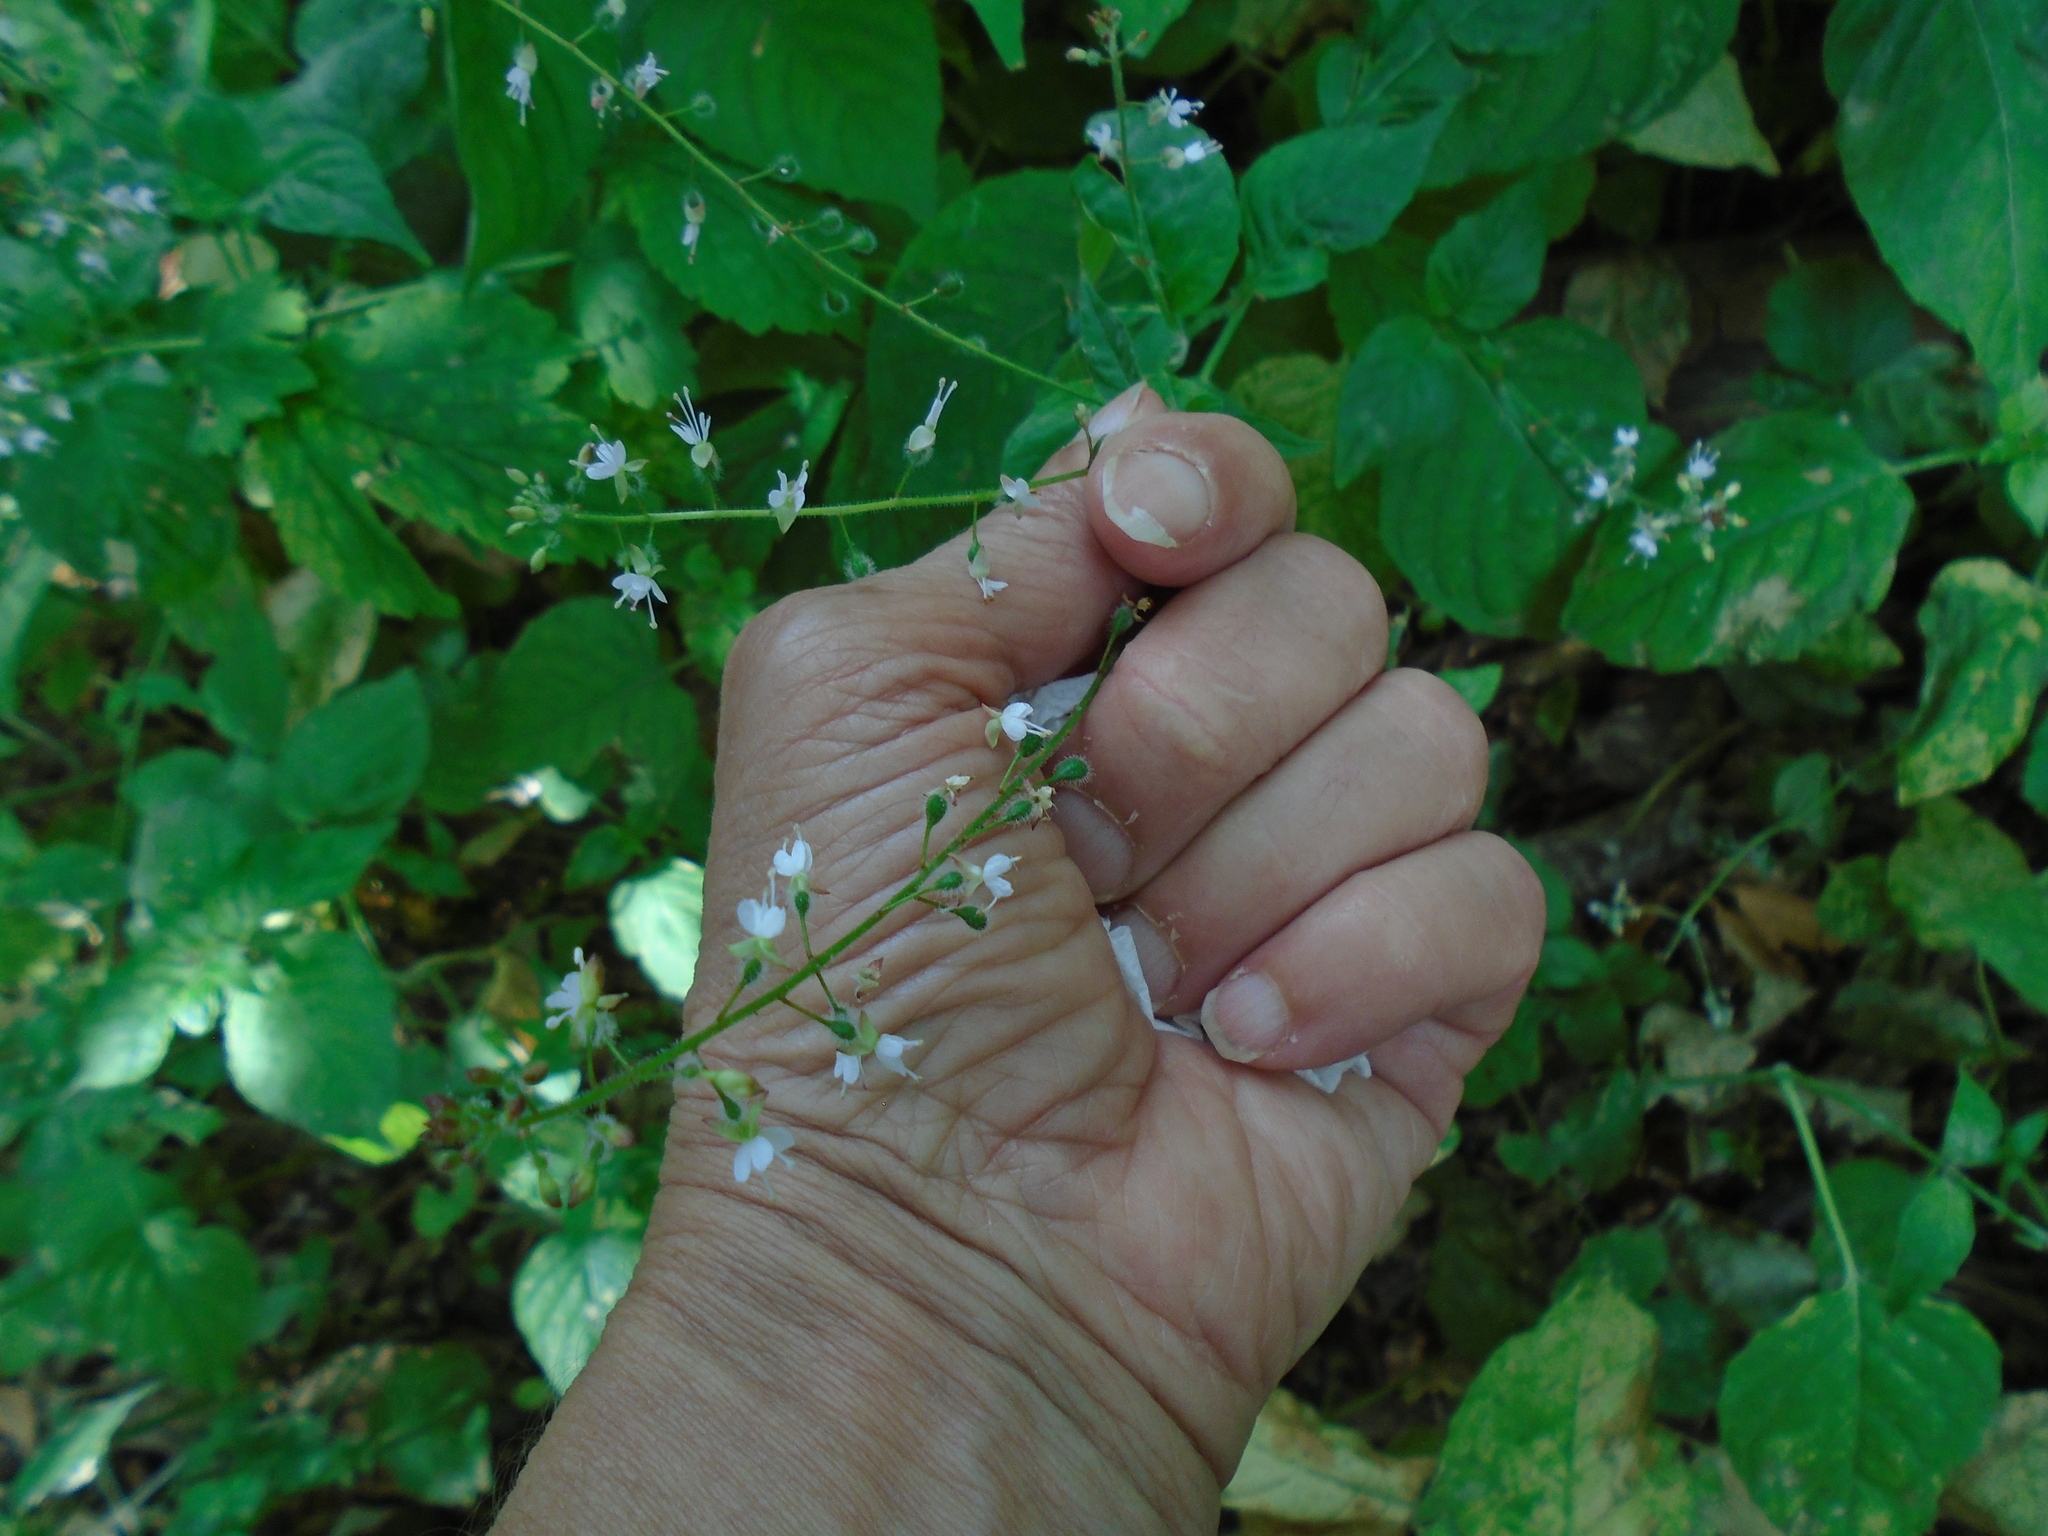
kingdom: Plantae
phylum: Tracheophyta
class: Magnoliopsida
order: Myrtales
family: Onagraceae
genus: Circaea
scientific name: Circaea lutetiana
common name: Enchanter's-nightshade
